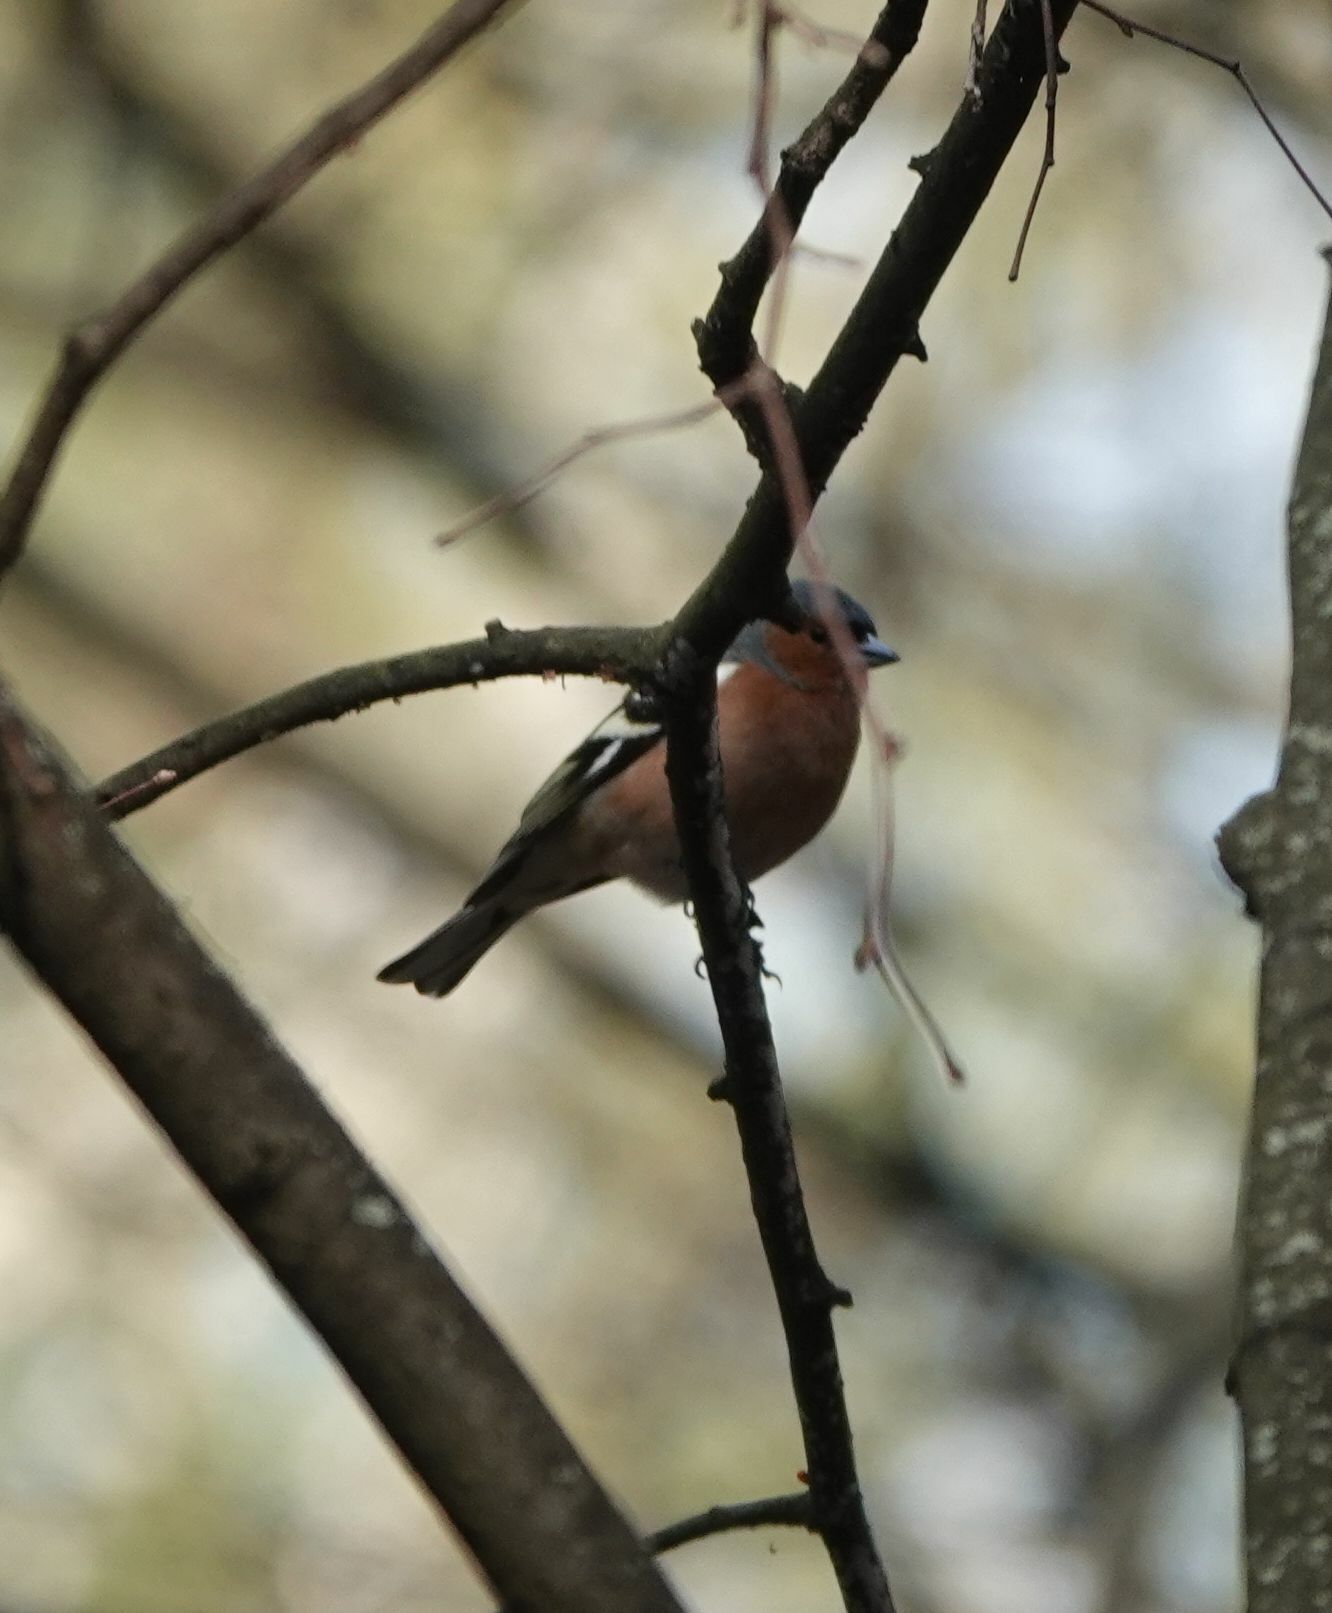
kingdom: Animalia
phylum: Chordata
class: Aves
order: Passeriformes
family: Fringillidae
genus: Fringilla
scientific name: Fringilla coelebs
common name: Common chaffinch
